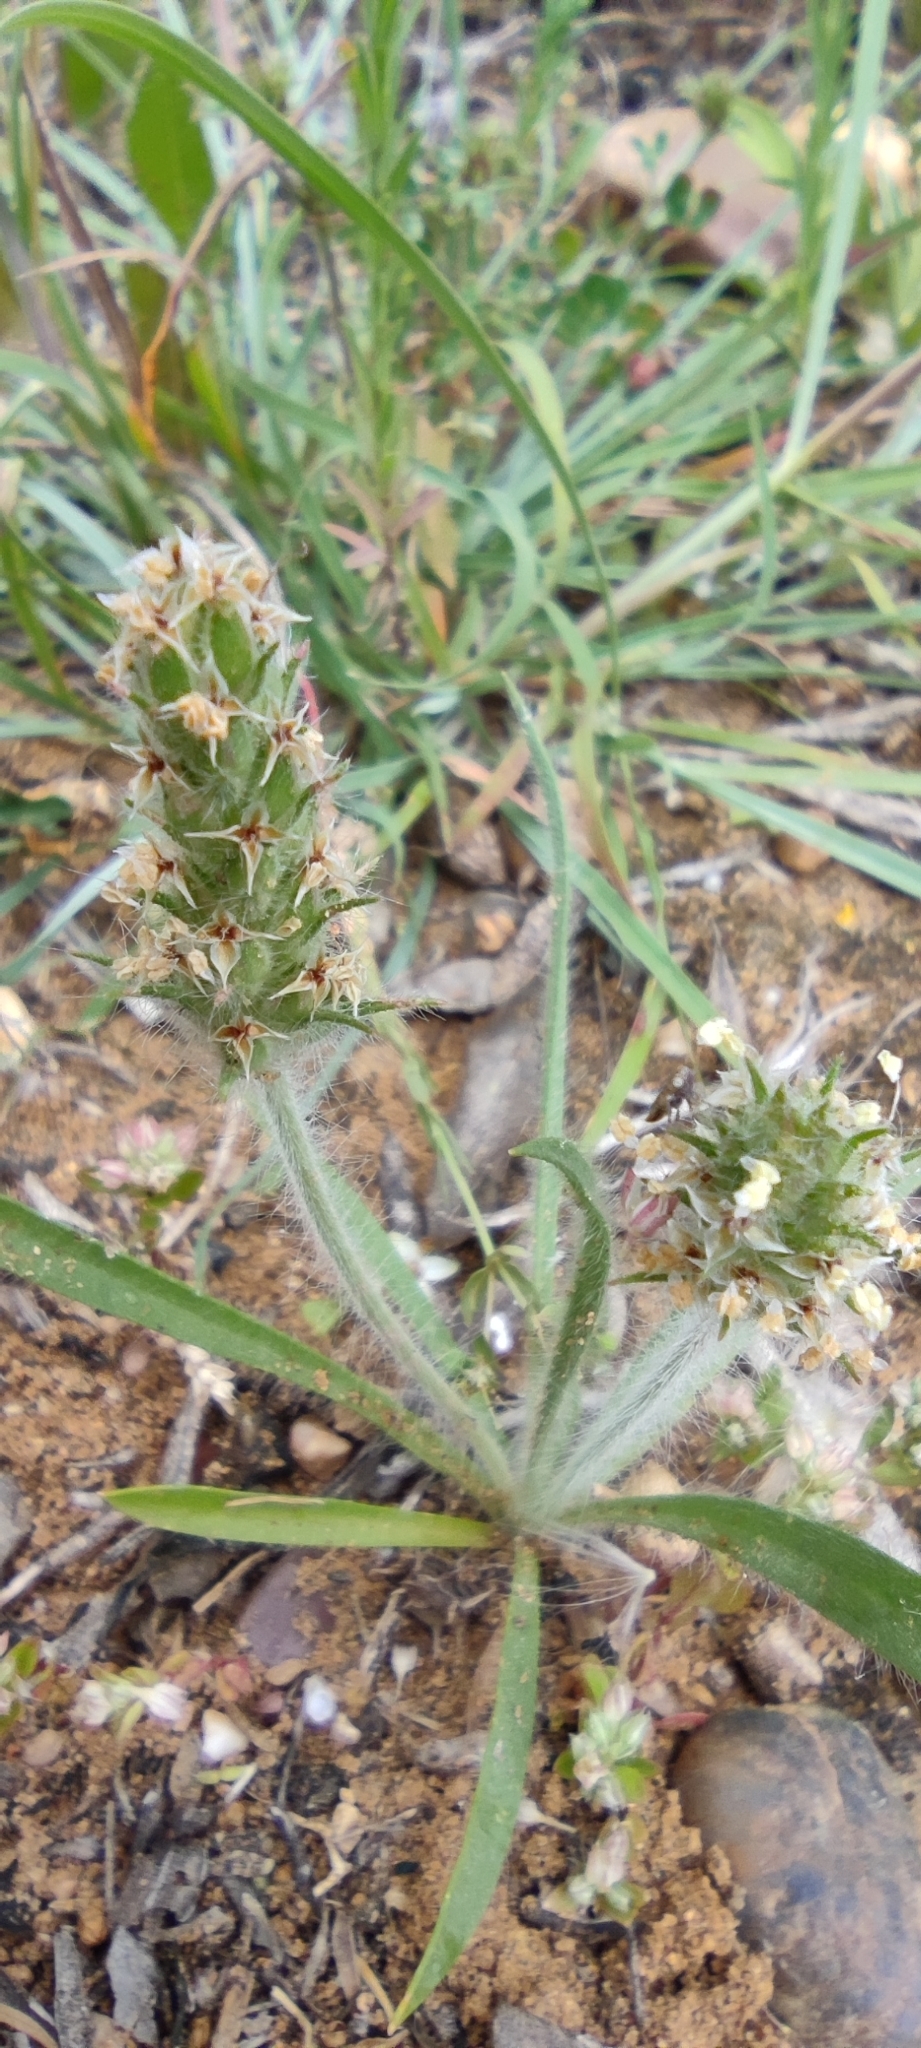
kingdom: Plantae
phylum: Tracheophyta
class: Magnoliopsida
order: Lamiales
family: Plantaginaceae
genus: Plantago
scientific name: Plantago bellardii
